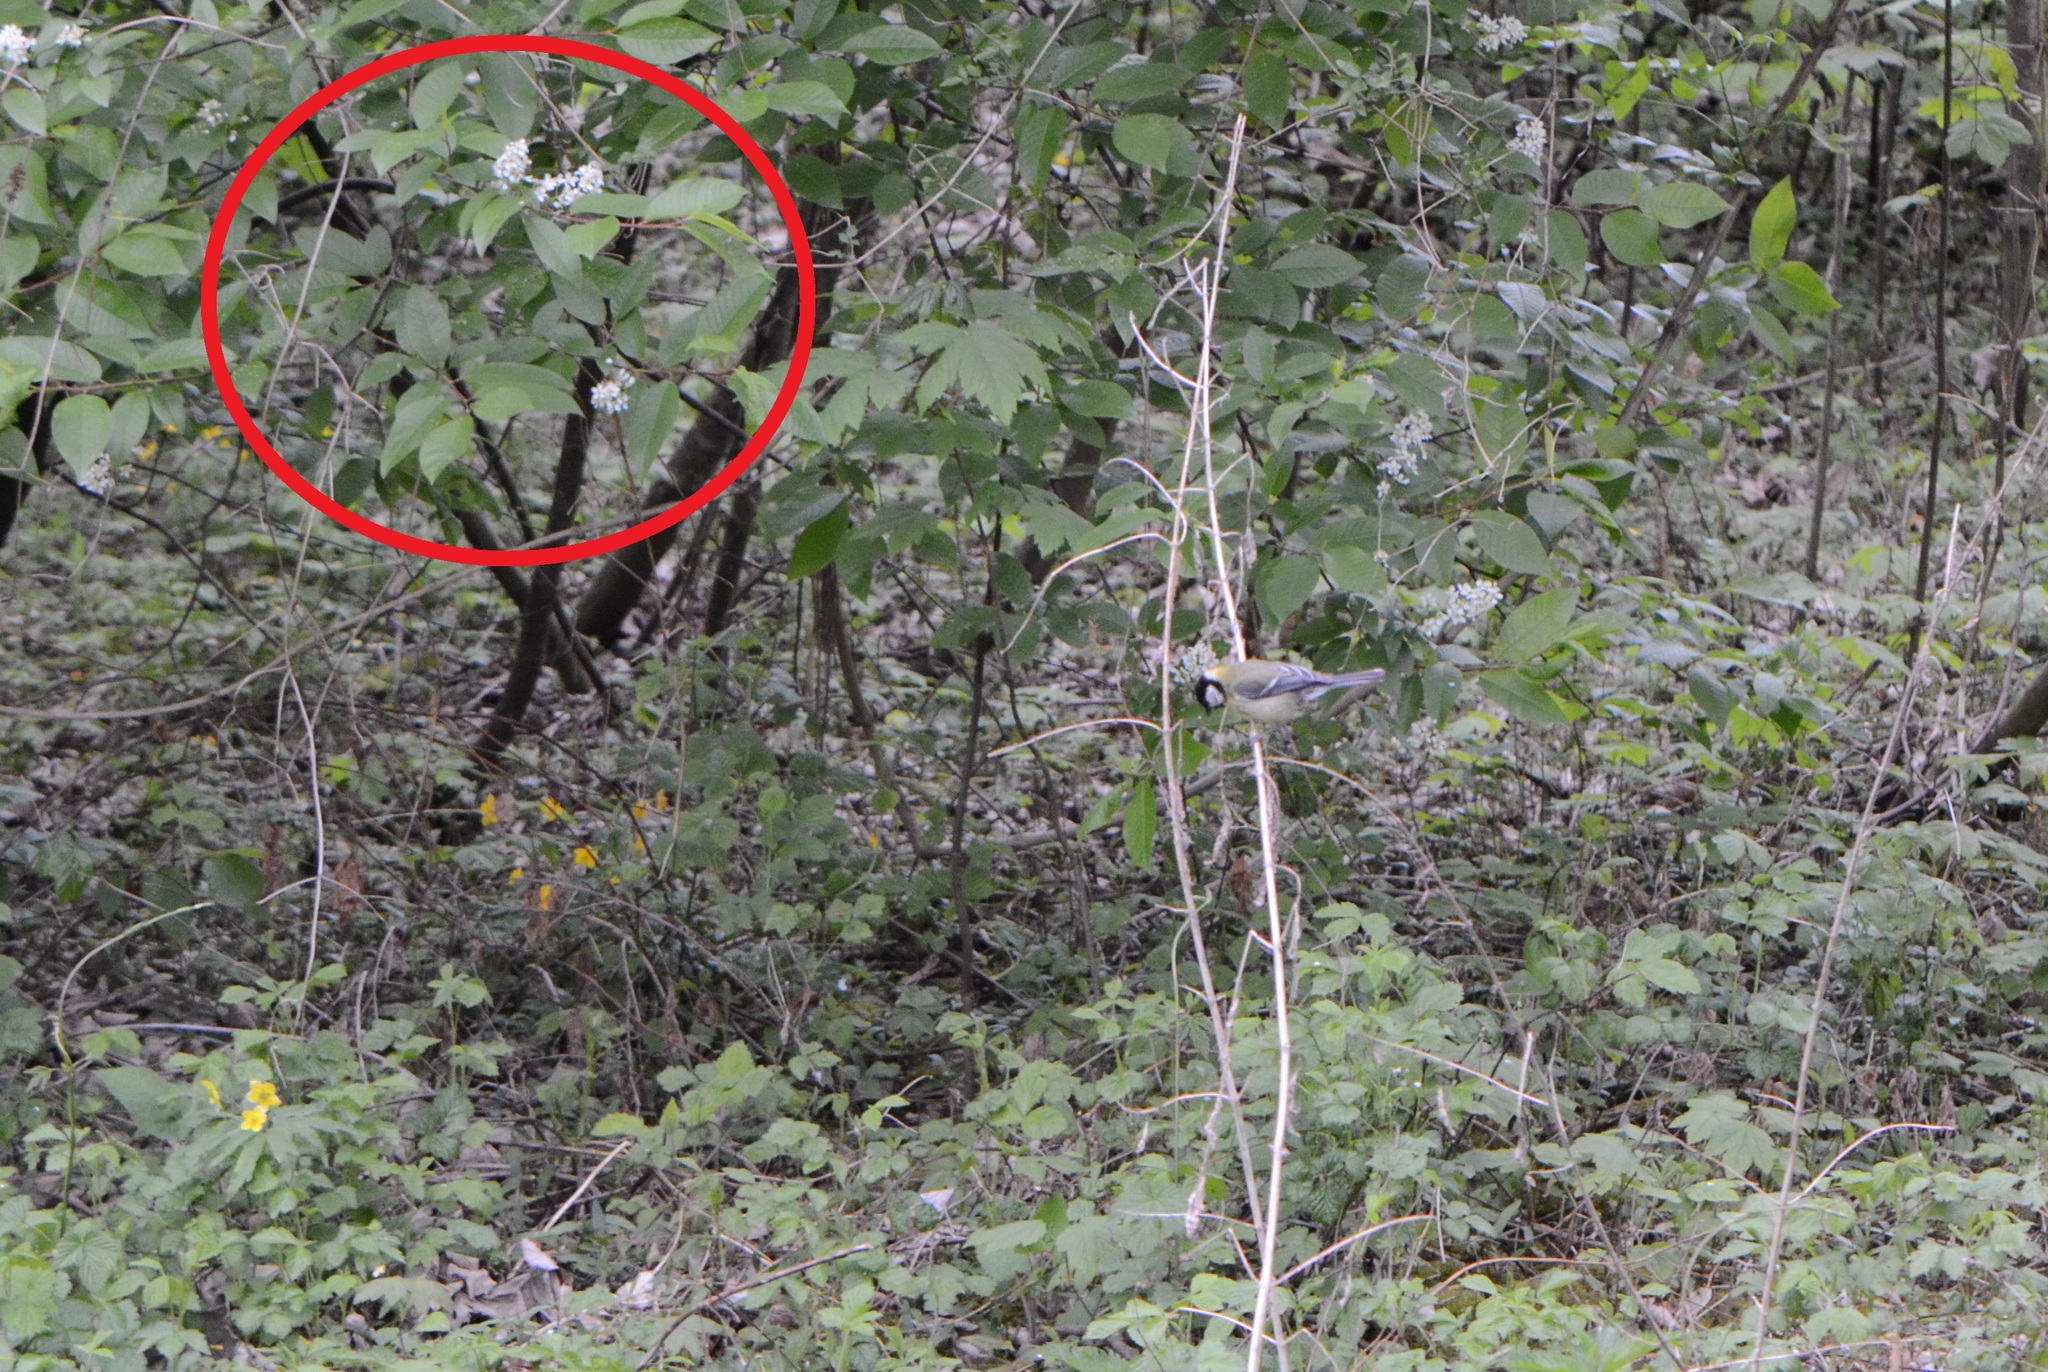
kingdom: Plantae
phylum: Tracheophyta
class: Magnoliopsida
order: Rosales
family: Rosaceae
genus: Prunus
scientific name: Prunus padus
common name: Bird cherry
